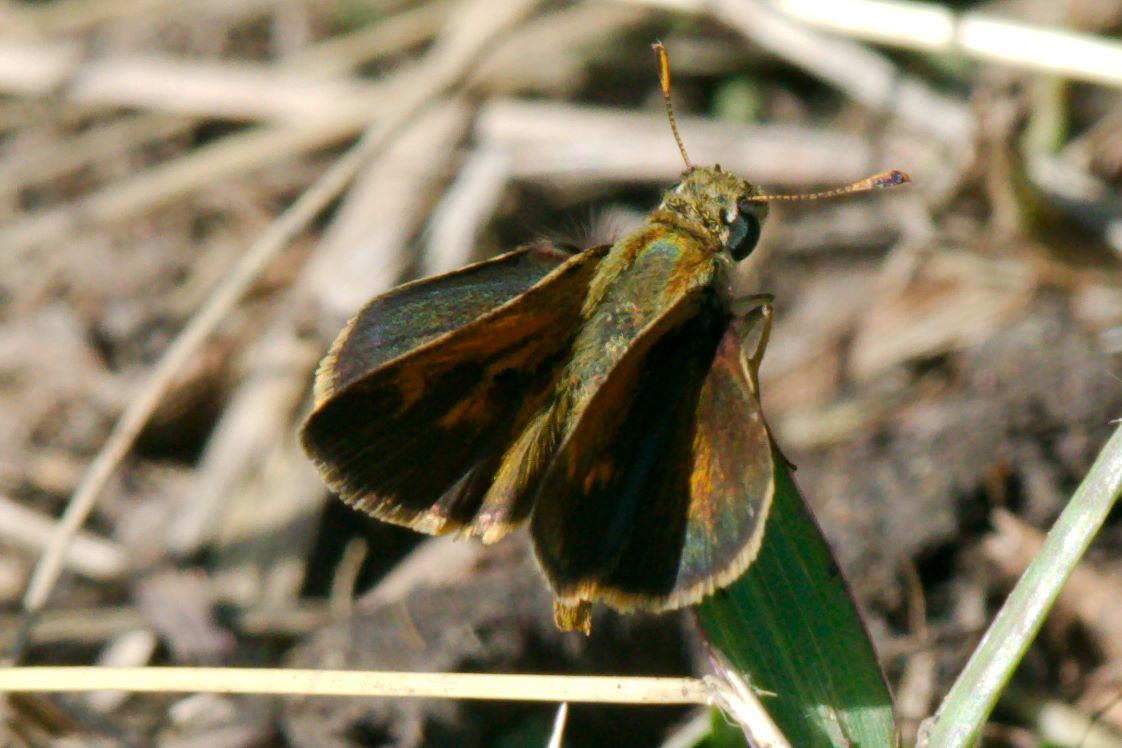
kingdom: Animalia
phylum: Arthropoda
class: Insecta
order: Lepidoptera
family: Hesperiidae
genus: Polites
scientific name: Polites baracoa
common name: Baracoa skipper
